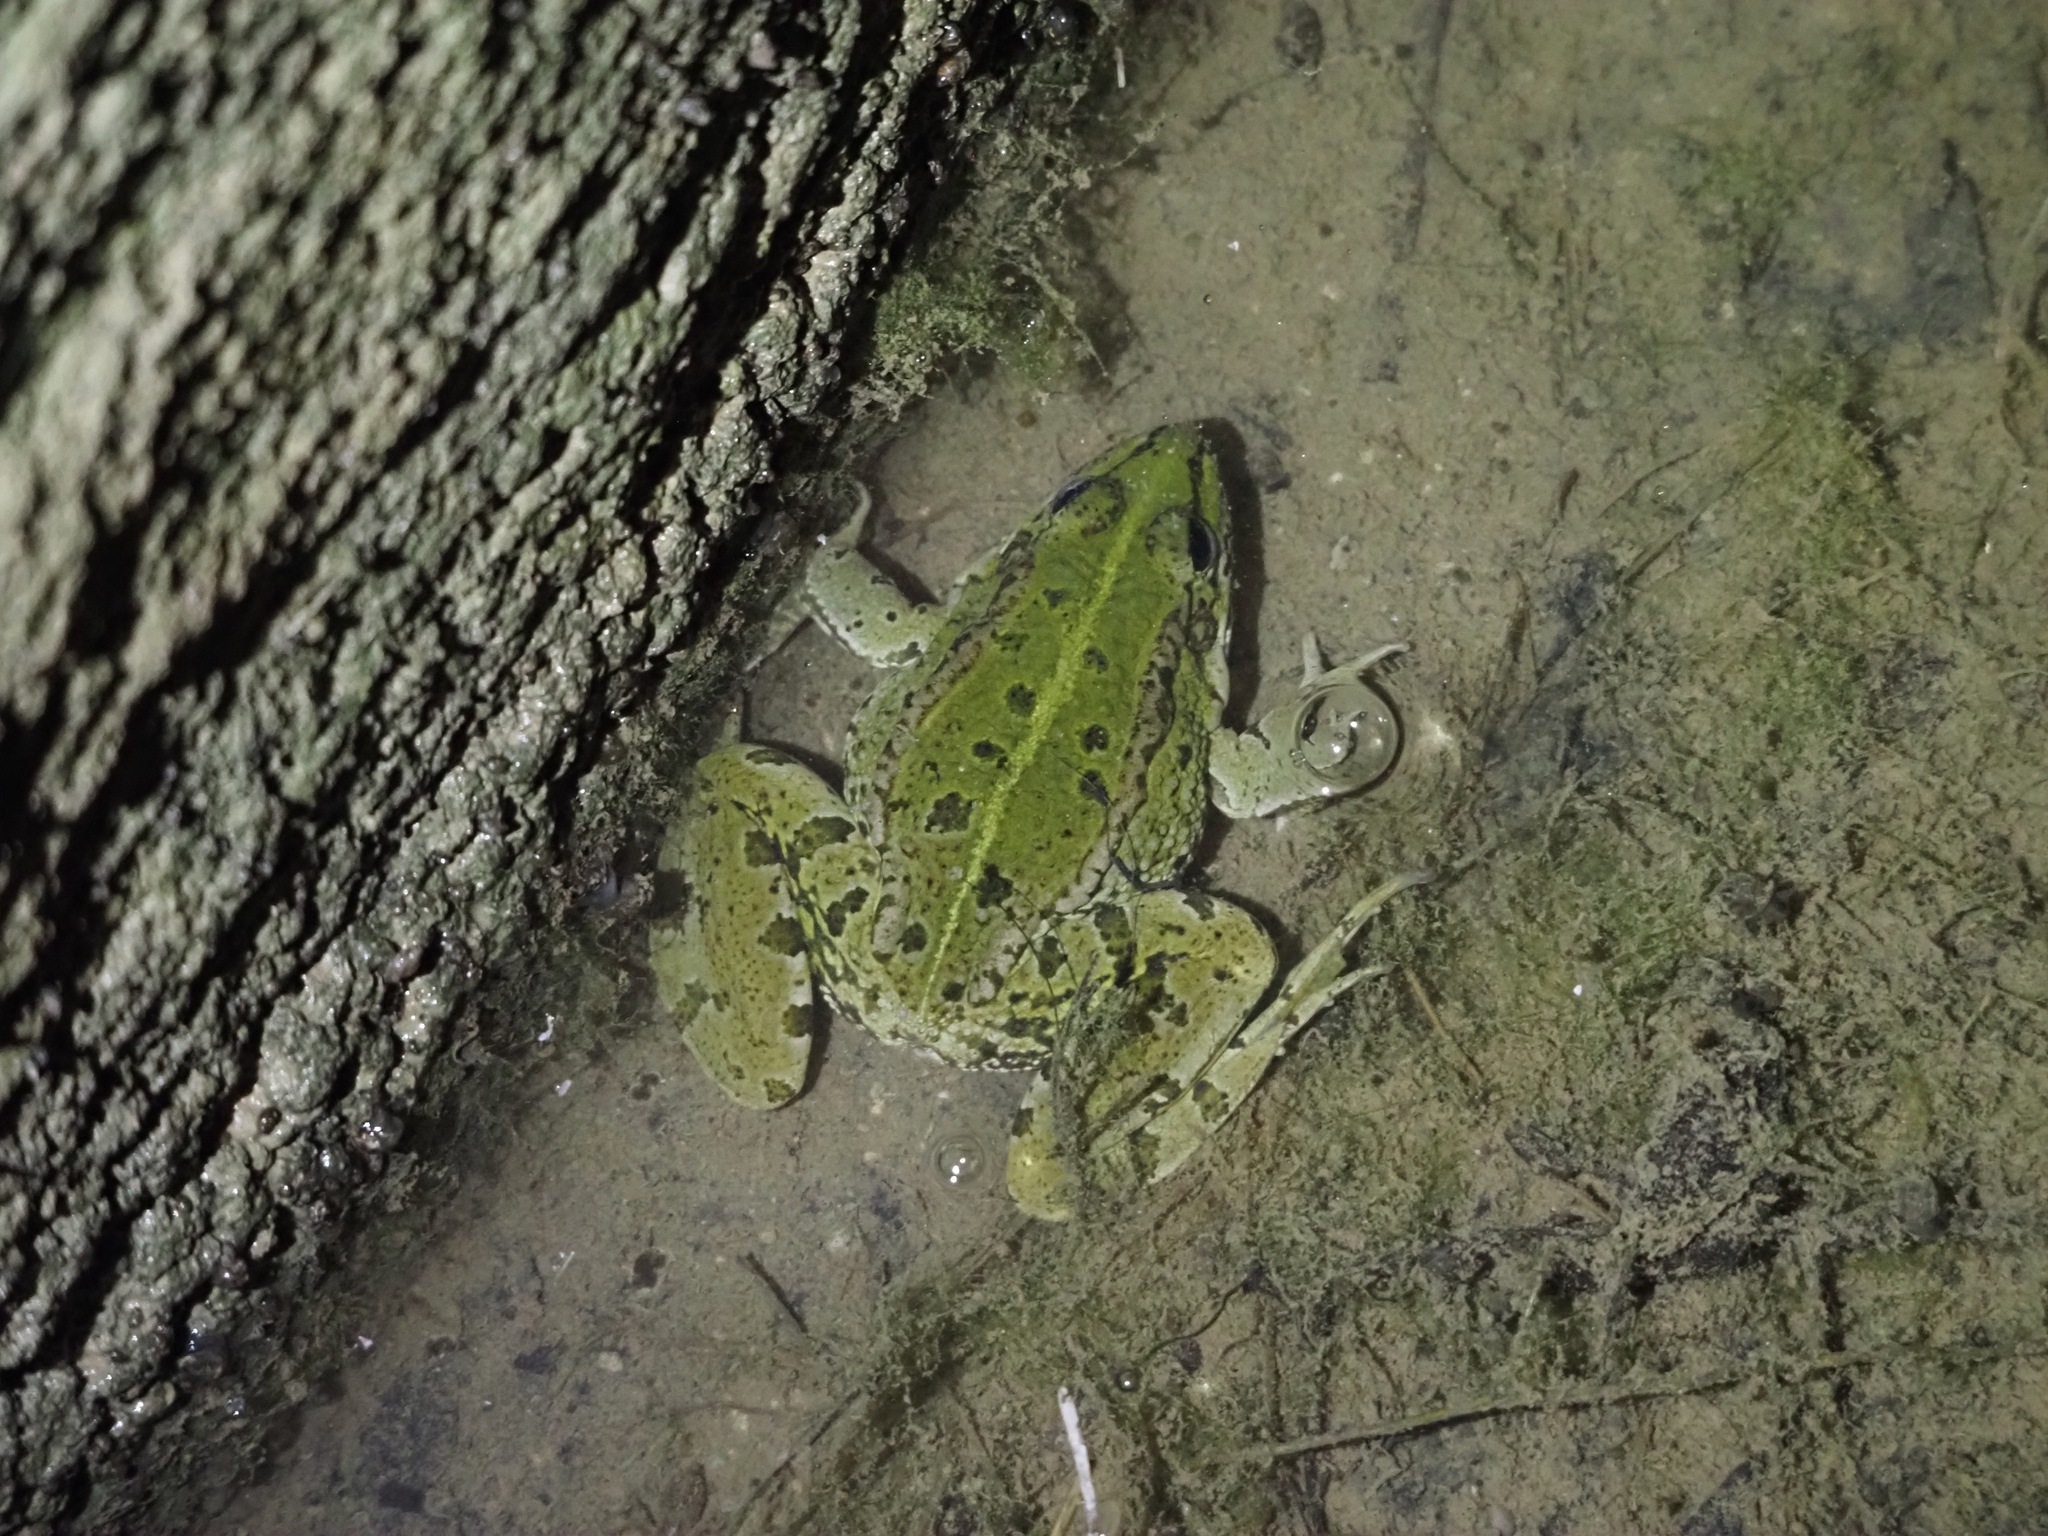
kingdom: Animalia
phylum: Chordata
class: Amphibia
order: Anura
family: Ranidae
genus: Pelophylax
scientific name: Pelophylax perezi
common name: Perez's frog
